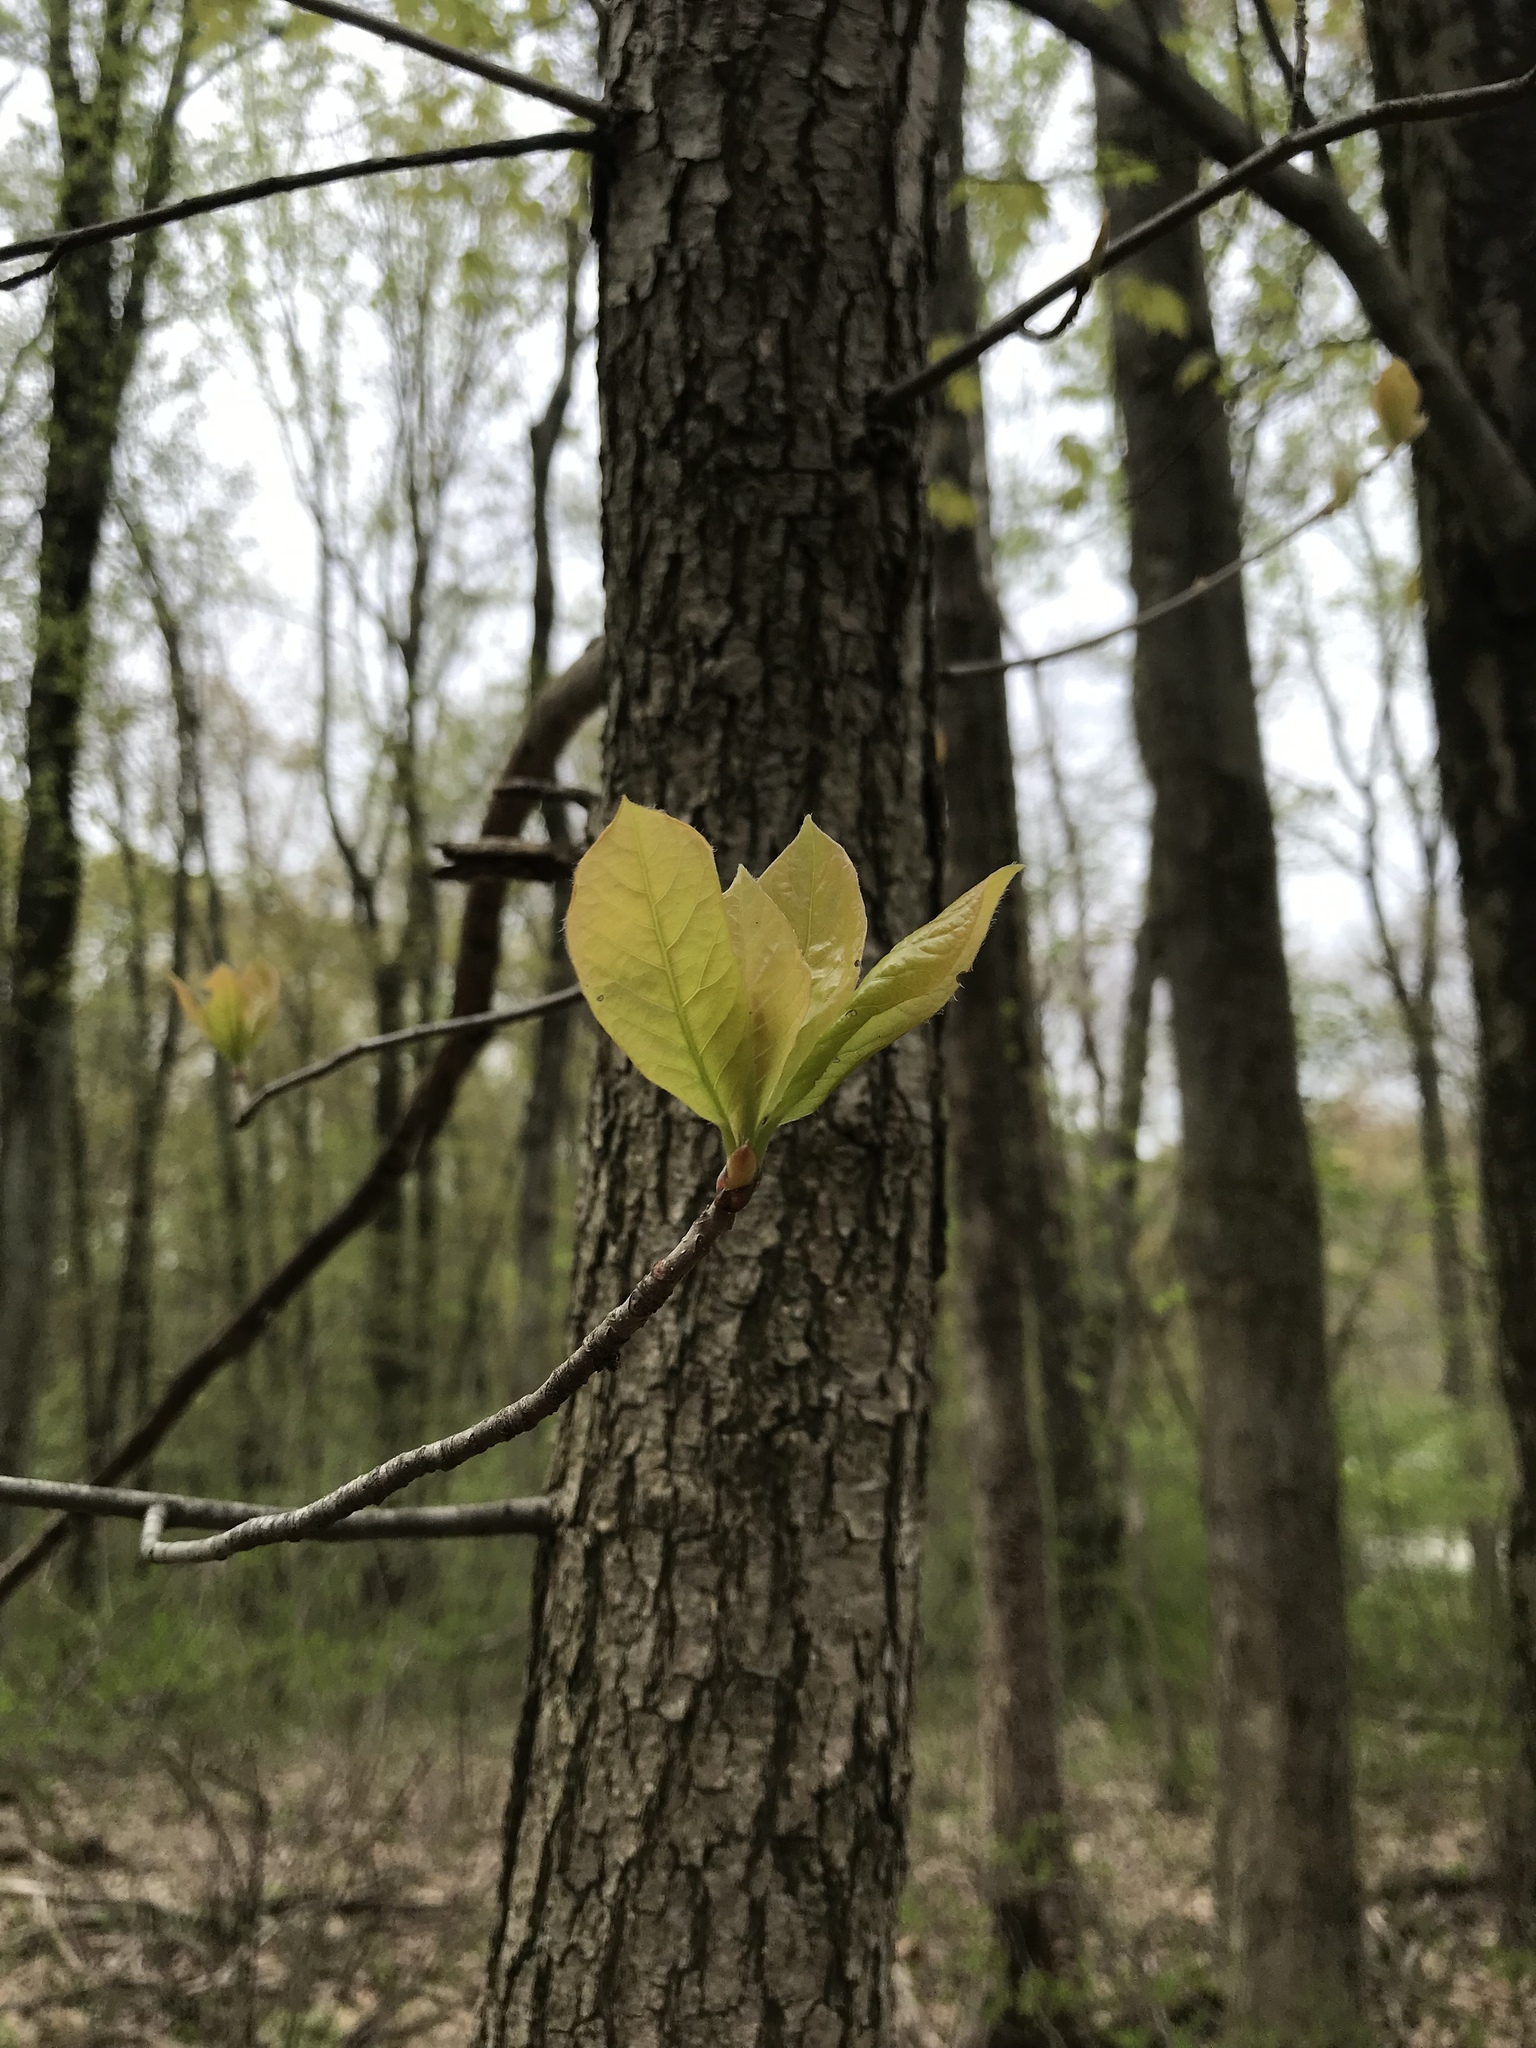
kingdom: Plantae
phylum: Tracheophyta
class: Magnoliopsida
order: Cornales
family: Nyssaceae
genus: Nyssa
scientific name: Nyssa sylvatica
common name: Black tupelo
